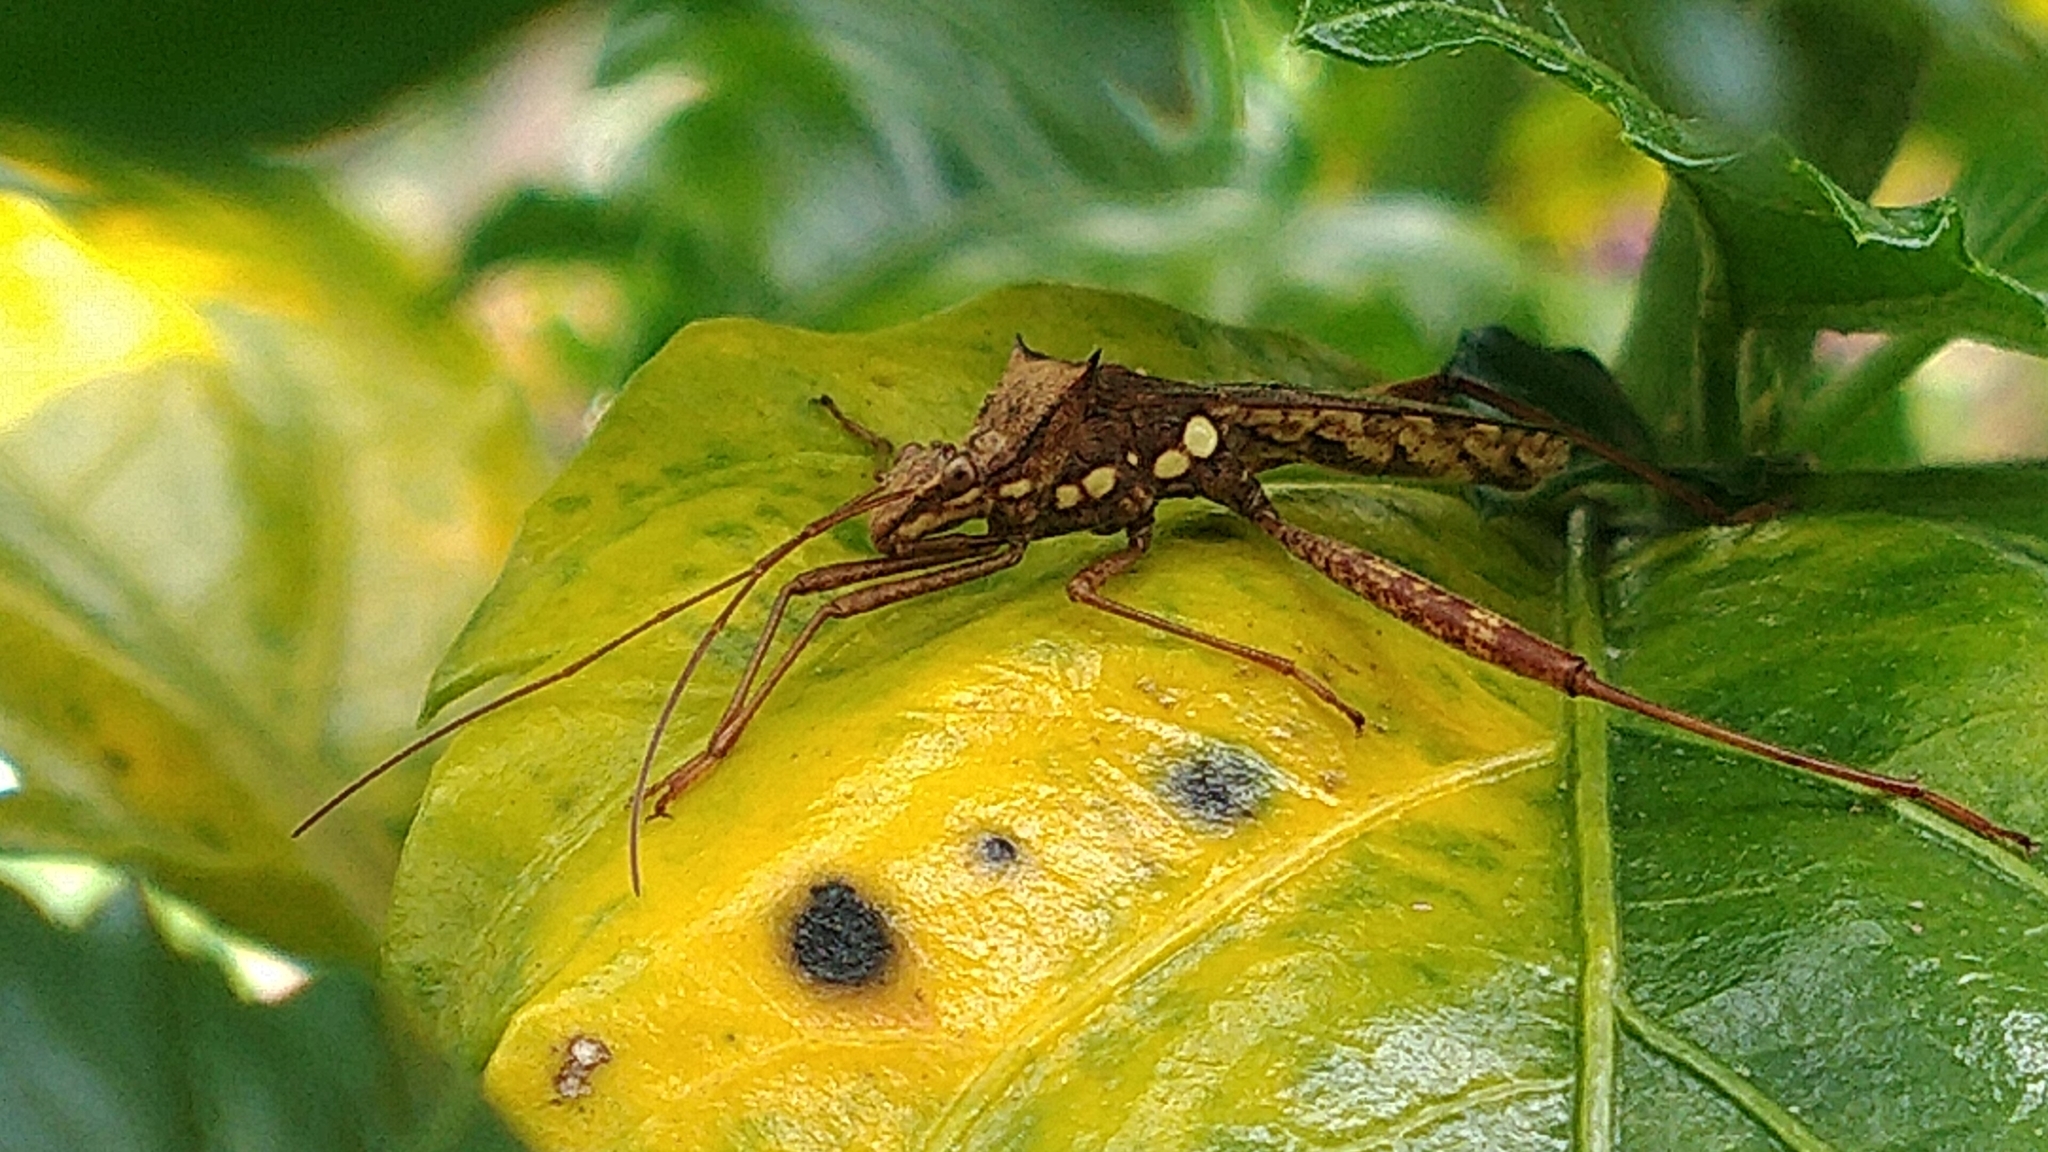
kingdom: Animalia
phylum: Arthropoda
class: Insecta
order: Hemiptera
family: Alydidae
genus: Riptortus
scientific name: Riptortus pedestris
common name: Bean bug
